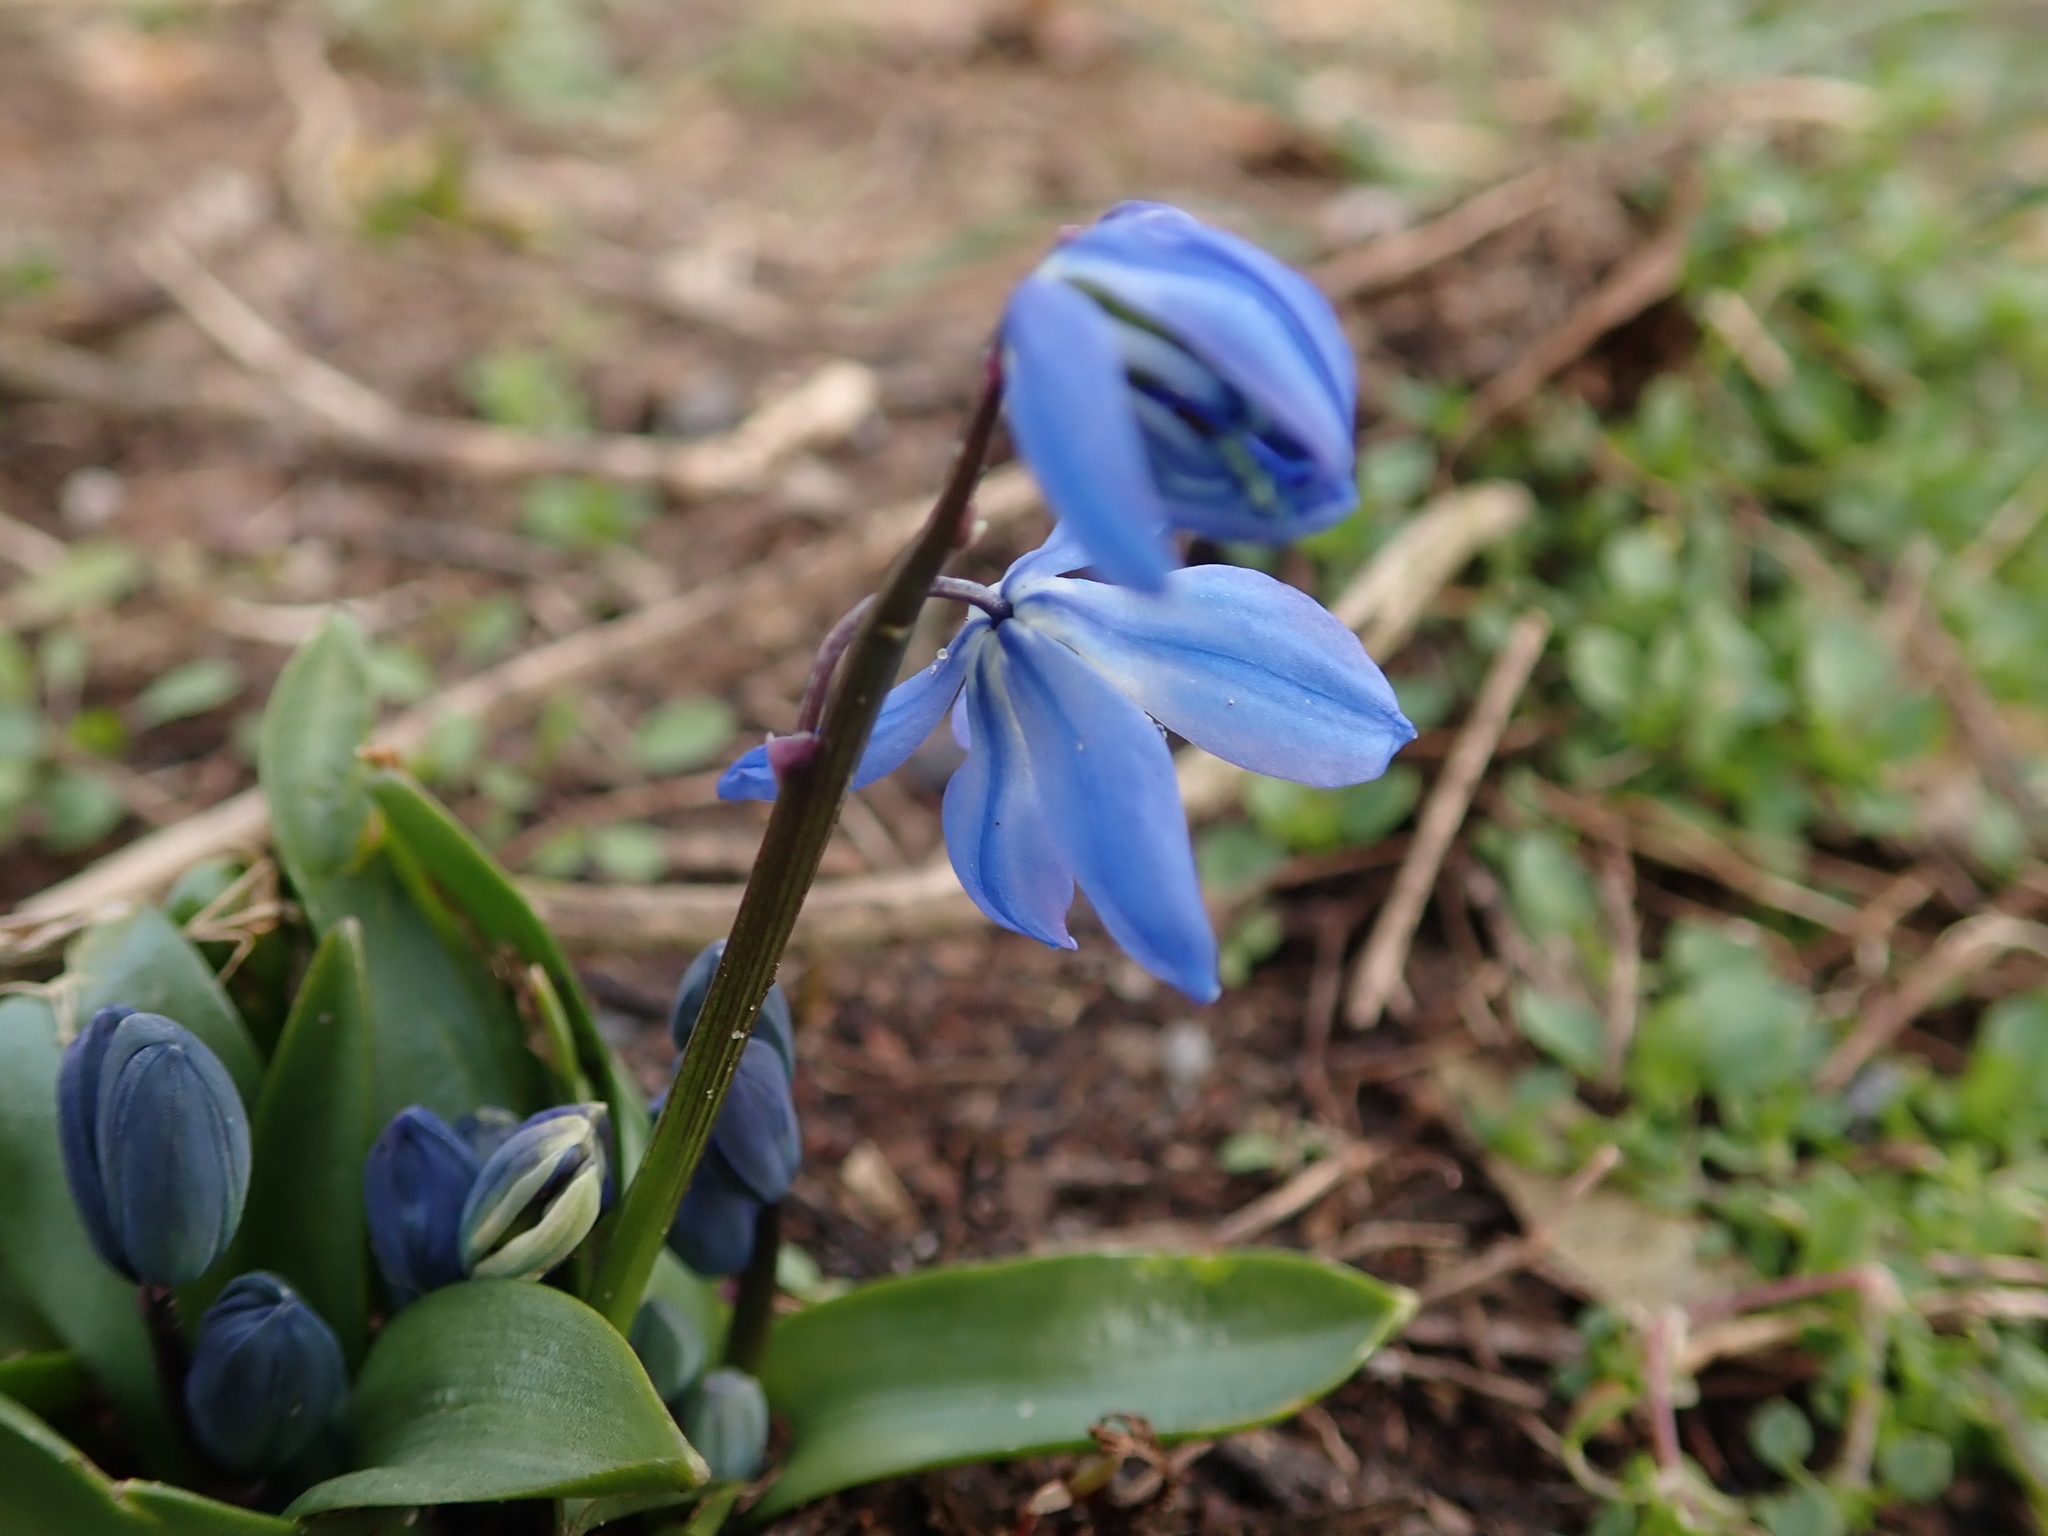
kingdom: Plantae
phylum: Tracheophyta
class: Liliopsida
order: Asparagales
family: Asparagaceae
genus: Scilla
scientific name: Scilla siberica
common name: Siberian squill
